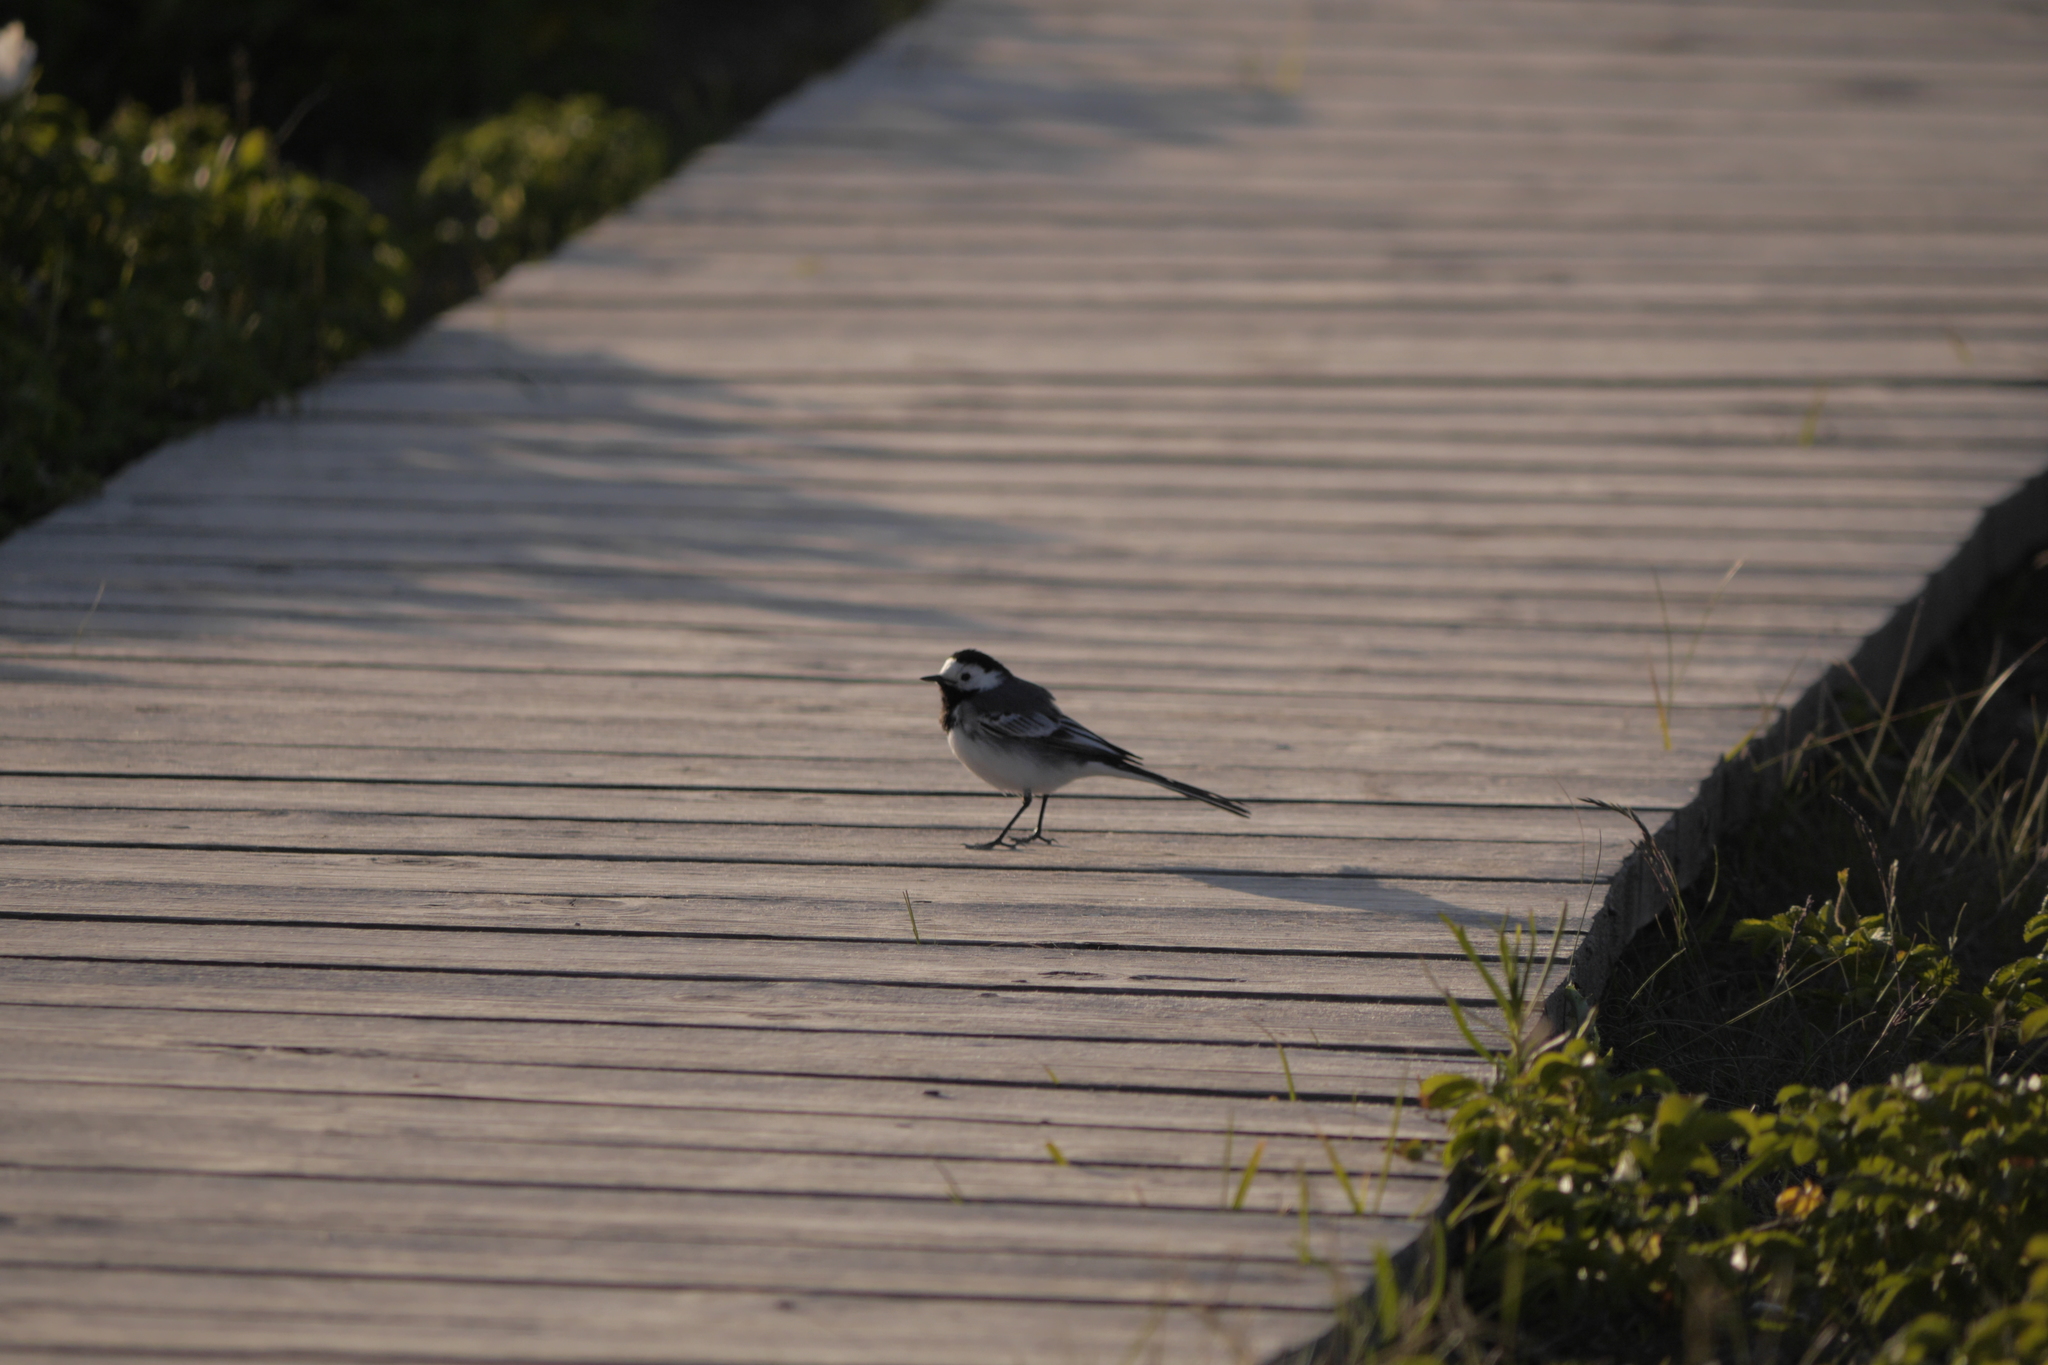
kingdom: Animalia
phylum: Chordata
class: Aves
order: Passeriformes
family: Motacillidae
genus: Motacilla
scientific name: Motacilla alba
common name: White wagtail
